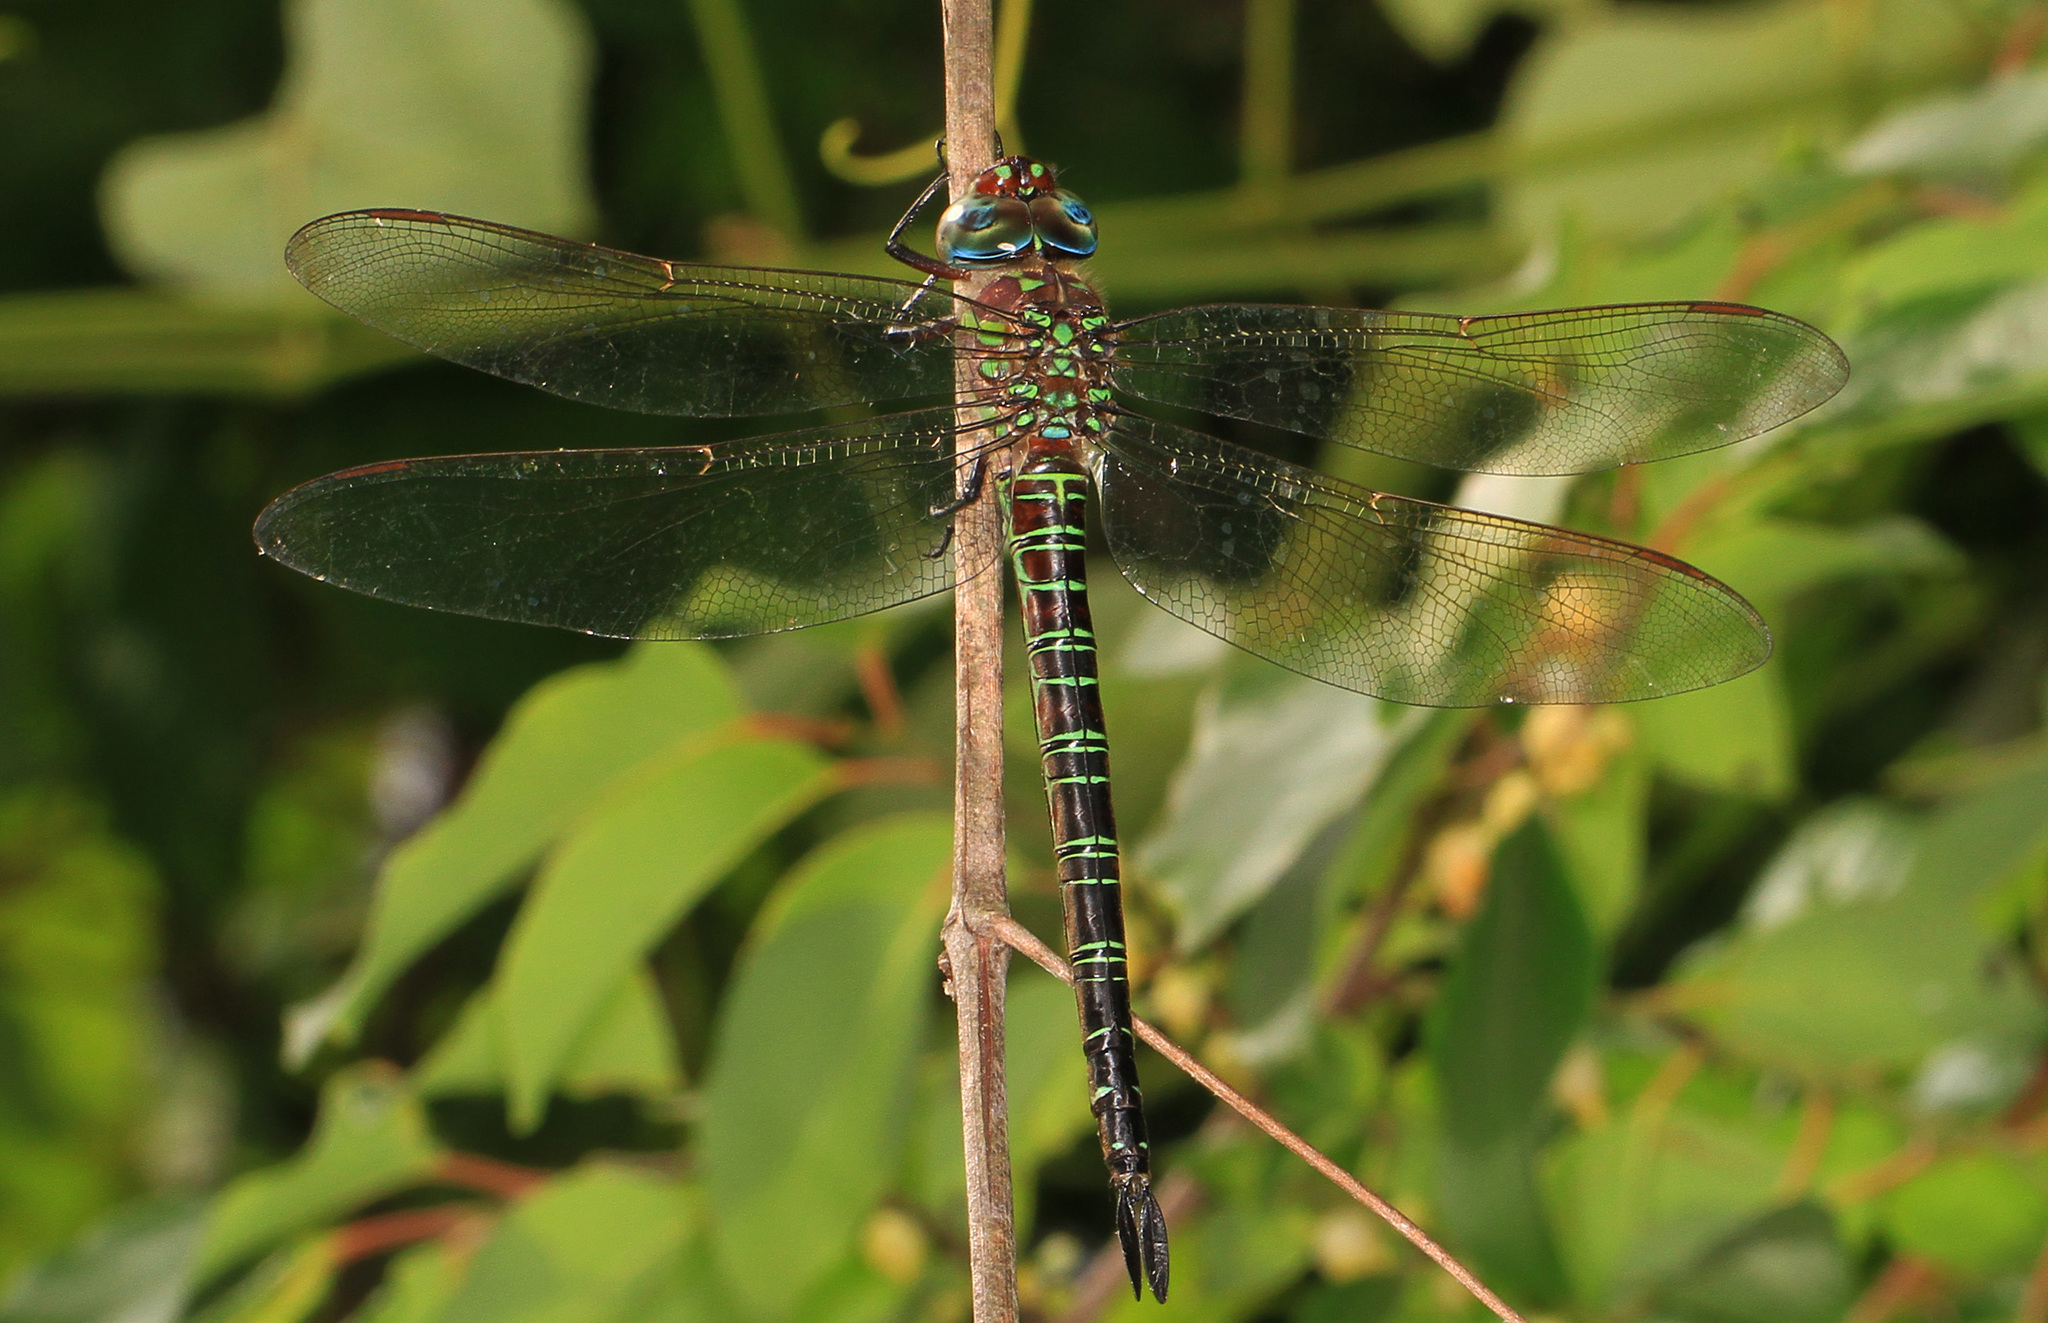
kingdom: Animalia
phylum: Arthropoda
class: Insecta
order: Odonata
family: Aeshnidae
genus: Epiaeschna
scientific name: Epiaeschna heros
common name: Swamp darner
